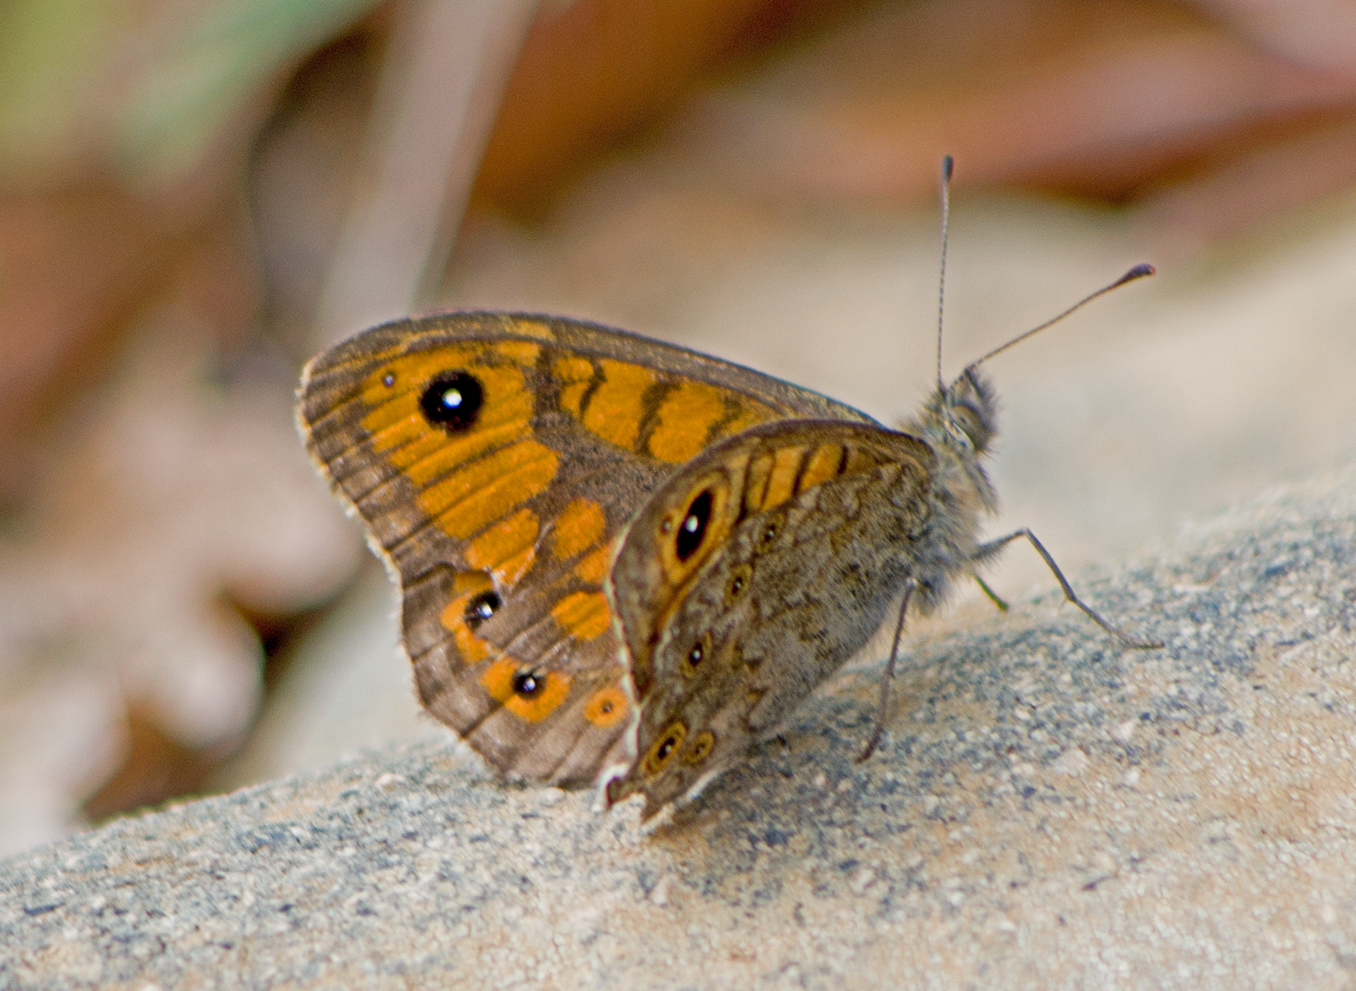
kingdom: Animalia
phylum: Arthropoda
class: Insecta
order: Lepidoptera
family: Nymphalidae
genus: Pararge
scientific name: Pararge Lasiommata megera
